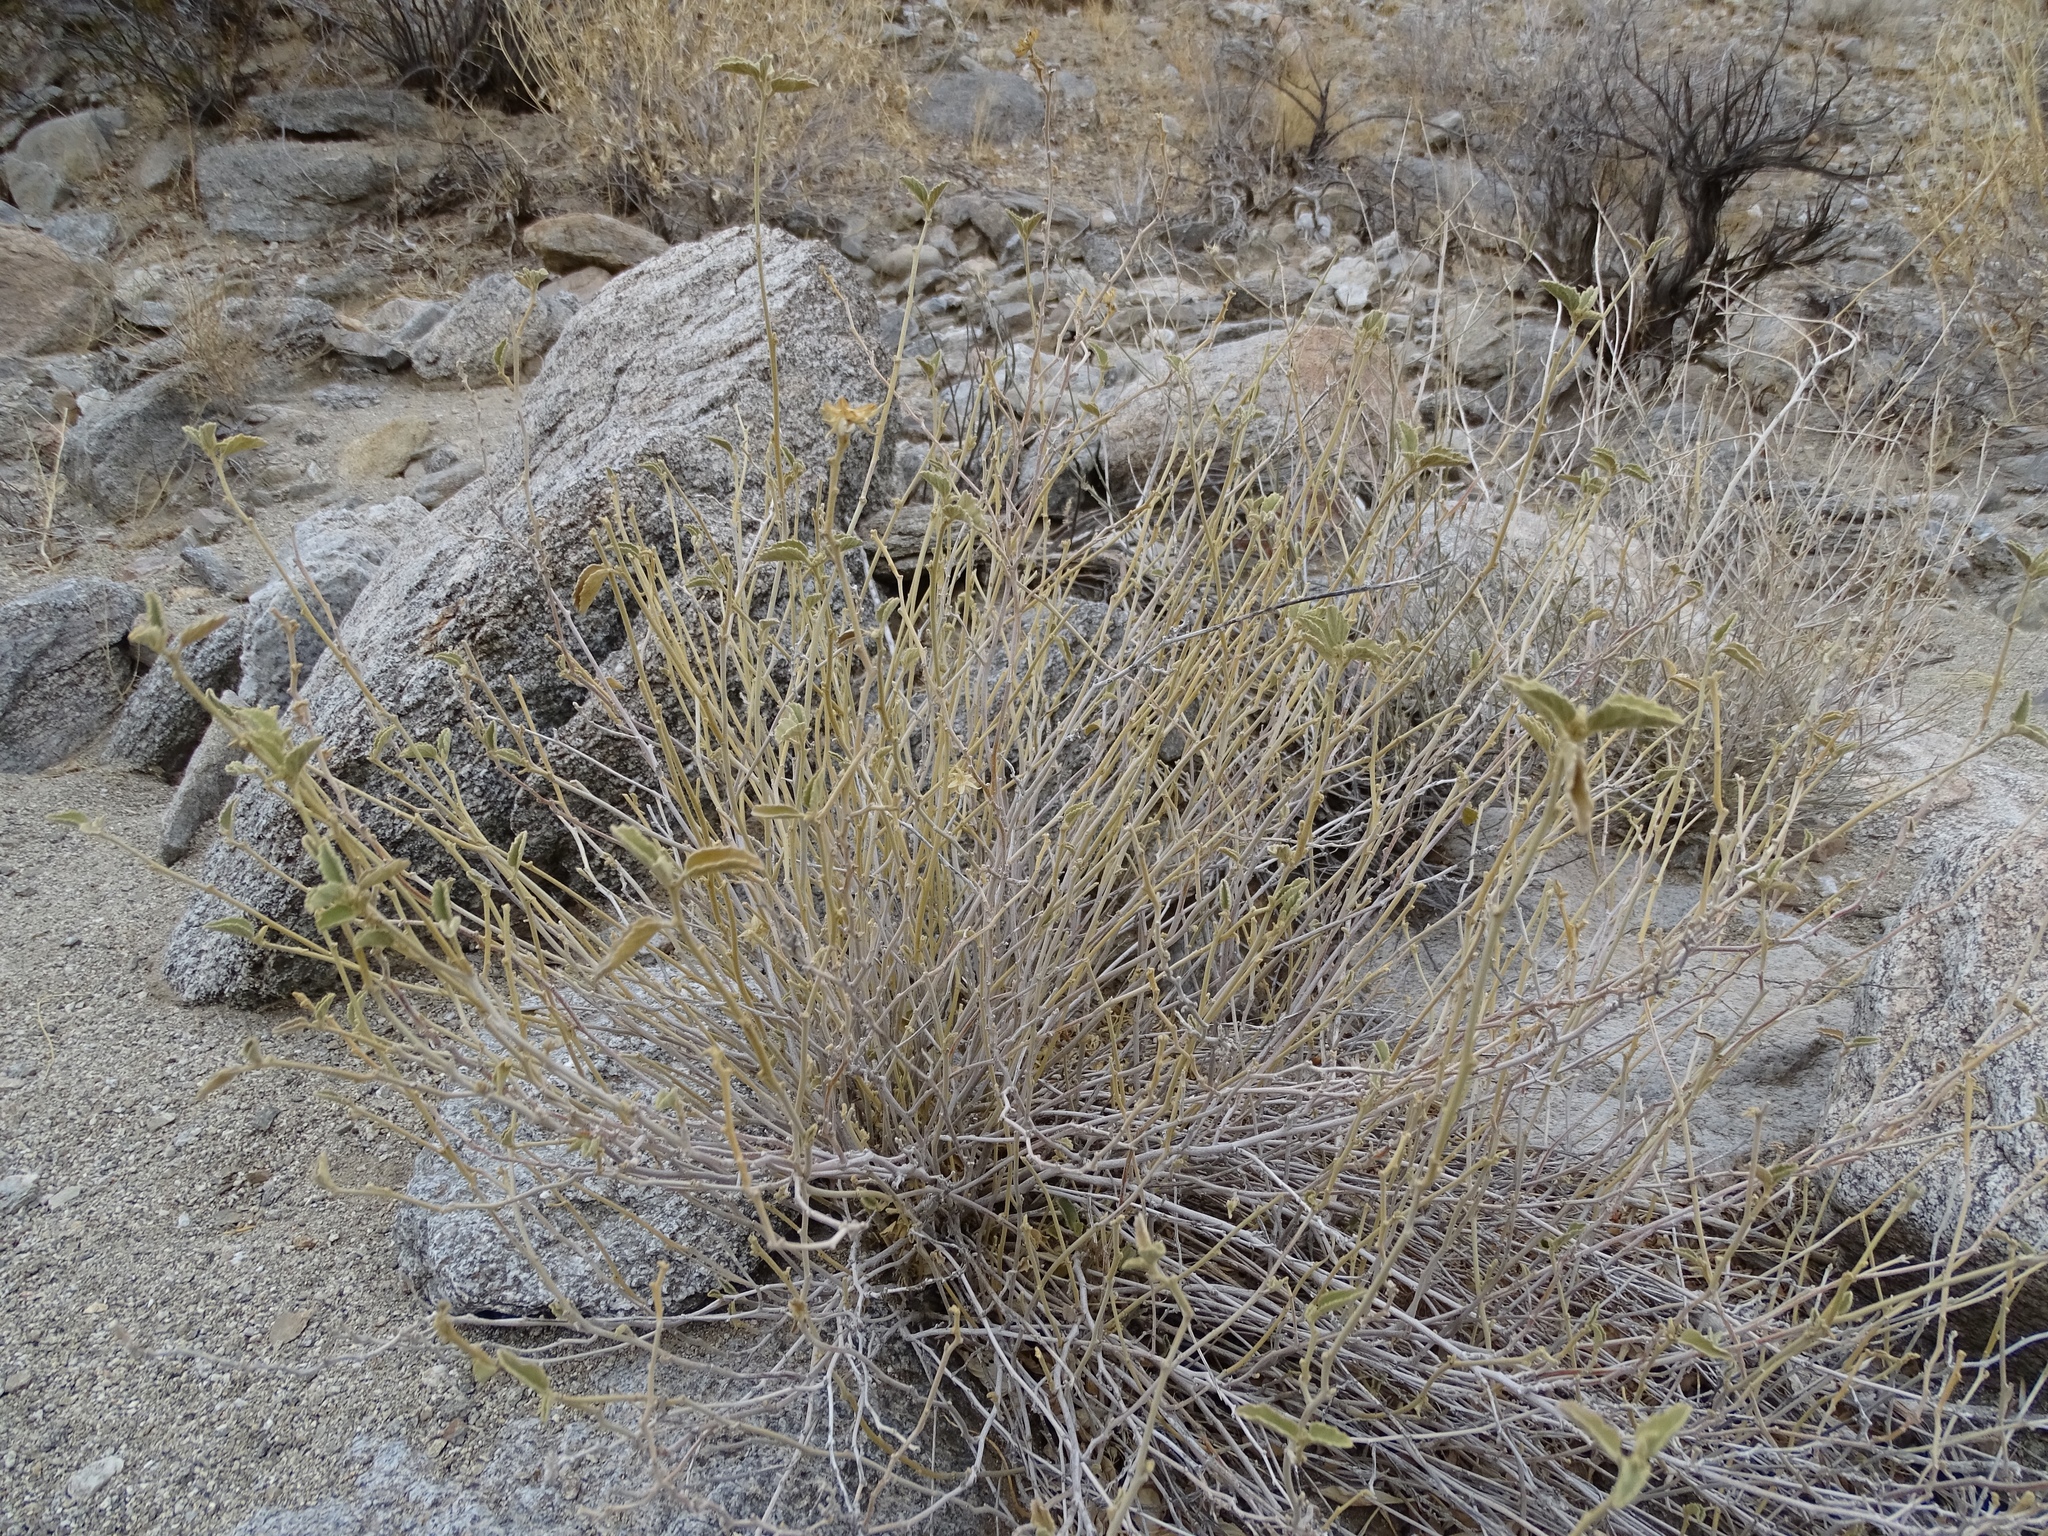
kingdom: Plantae
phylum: Tracheophyta
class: Magnoliopsida
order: Malvales
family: Malvaceae
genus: Hibiscus
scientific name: Hibiscus denudatus
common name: Paleface
